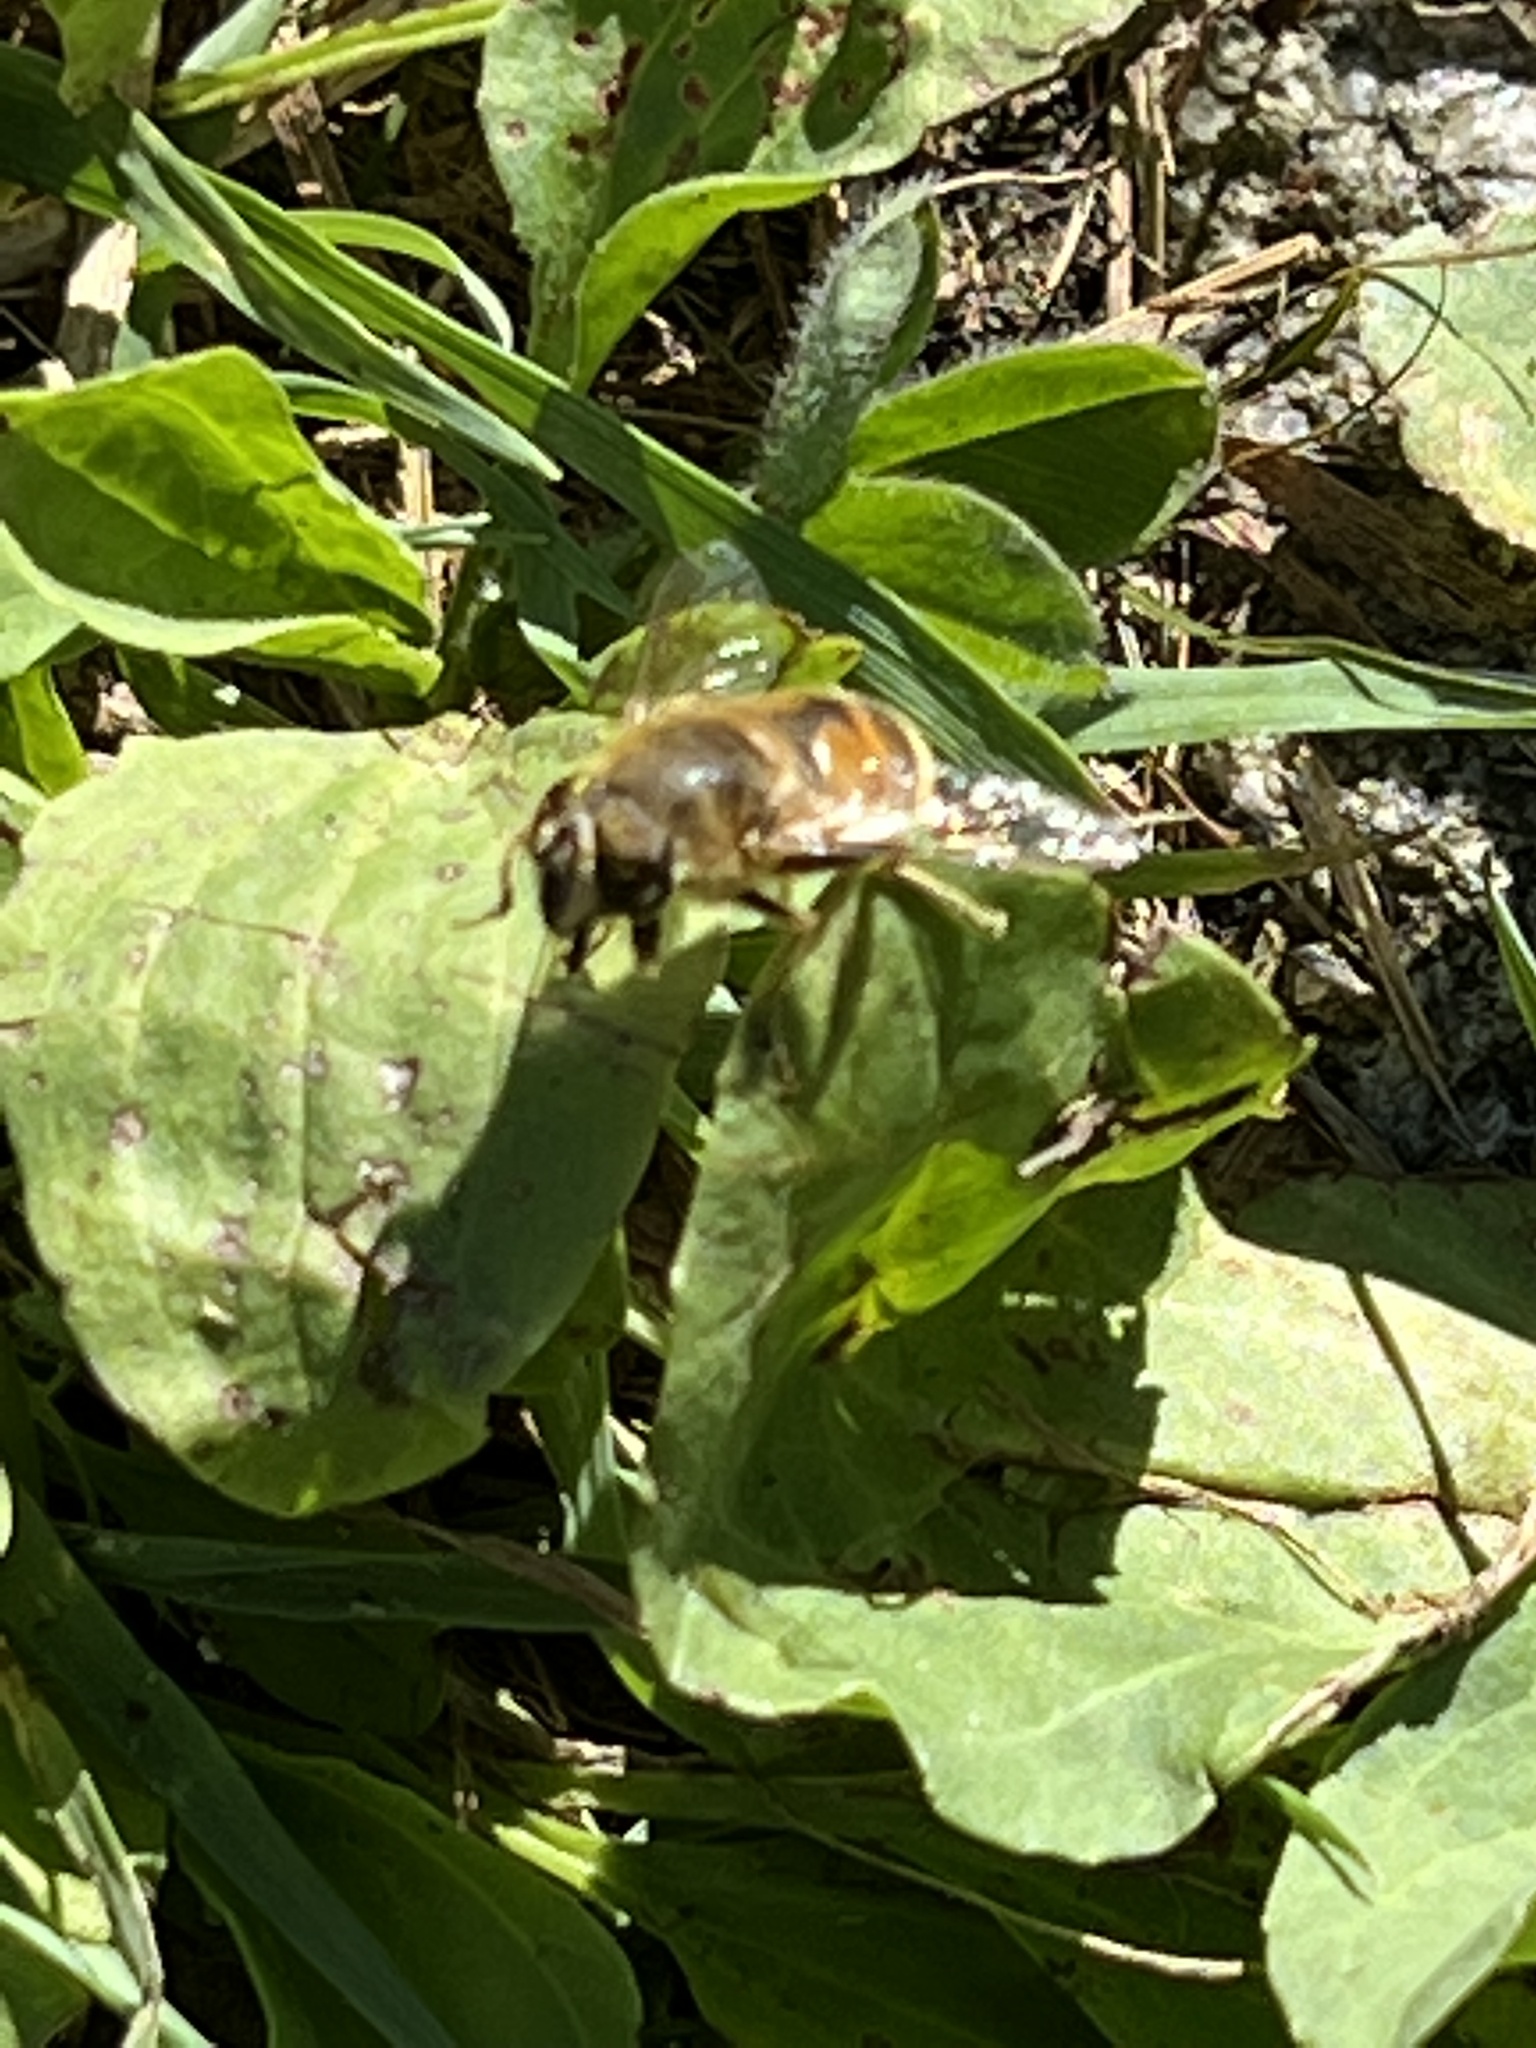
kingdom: Animalia
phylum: Arthropoda
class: Insecta
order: Diptera
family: Syrphidae
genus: Eristalis
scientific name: Eristalis tenax
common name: Drone fly
